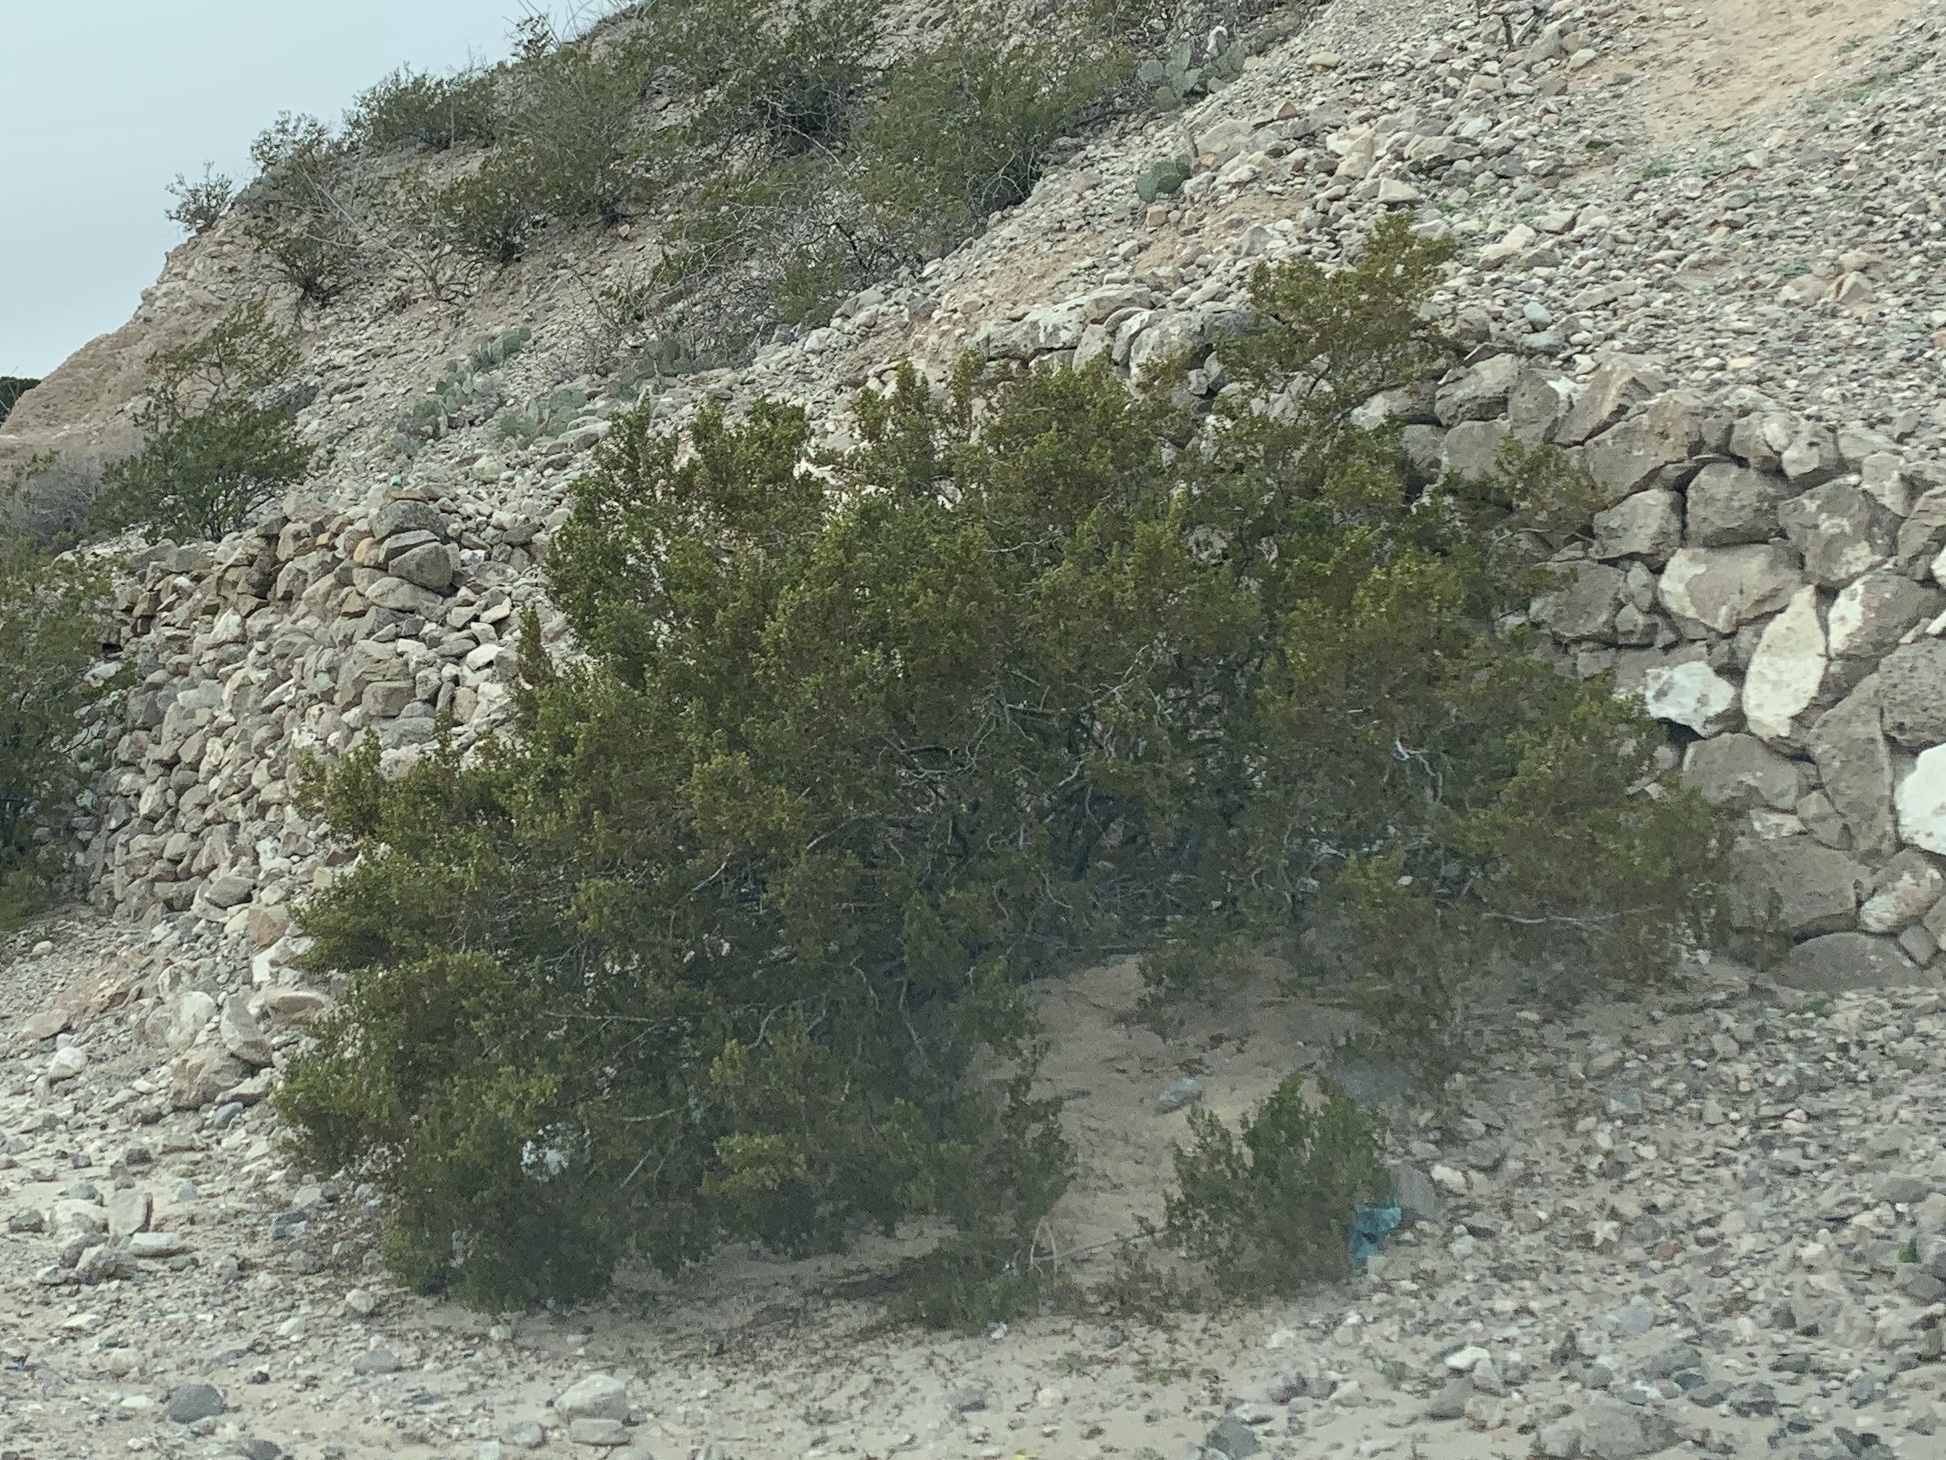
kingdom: Plantae
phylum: Tracheophyta
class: Magnoliopsida
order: Zygophyllales
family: Zygophyllaceae
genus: Larrea
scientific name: Larrea tridentata
